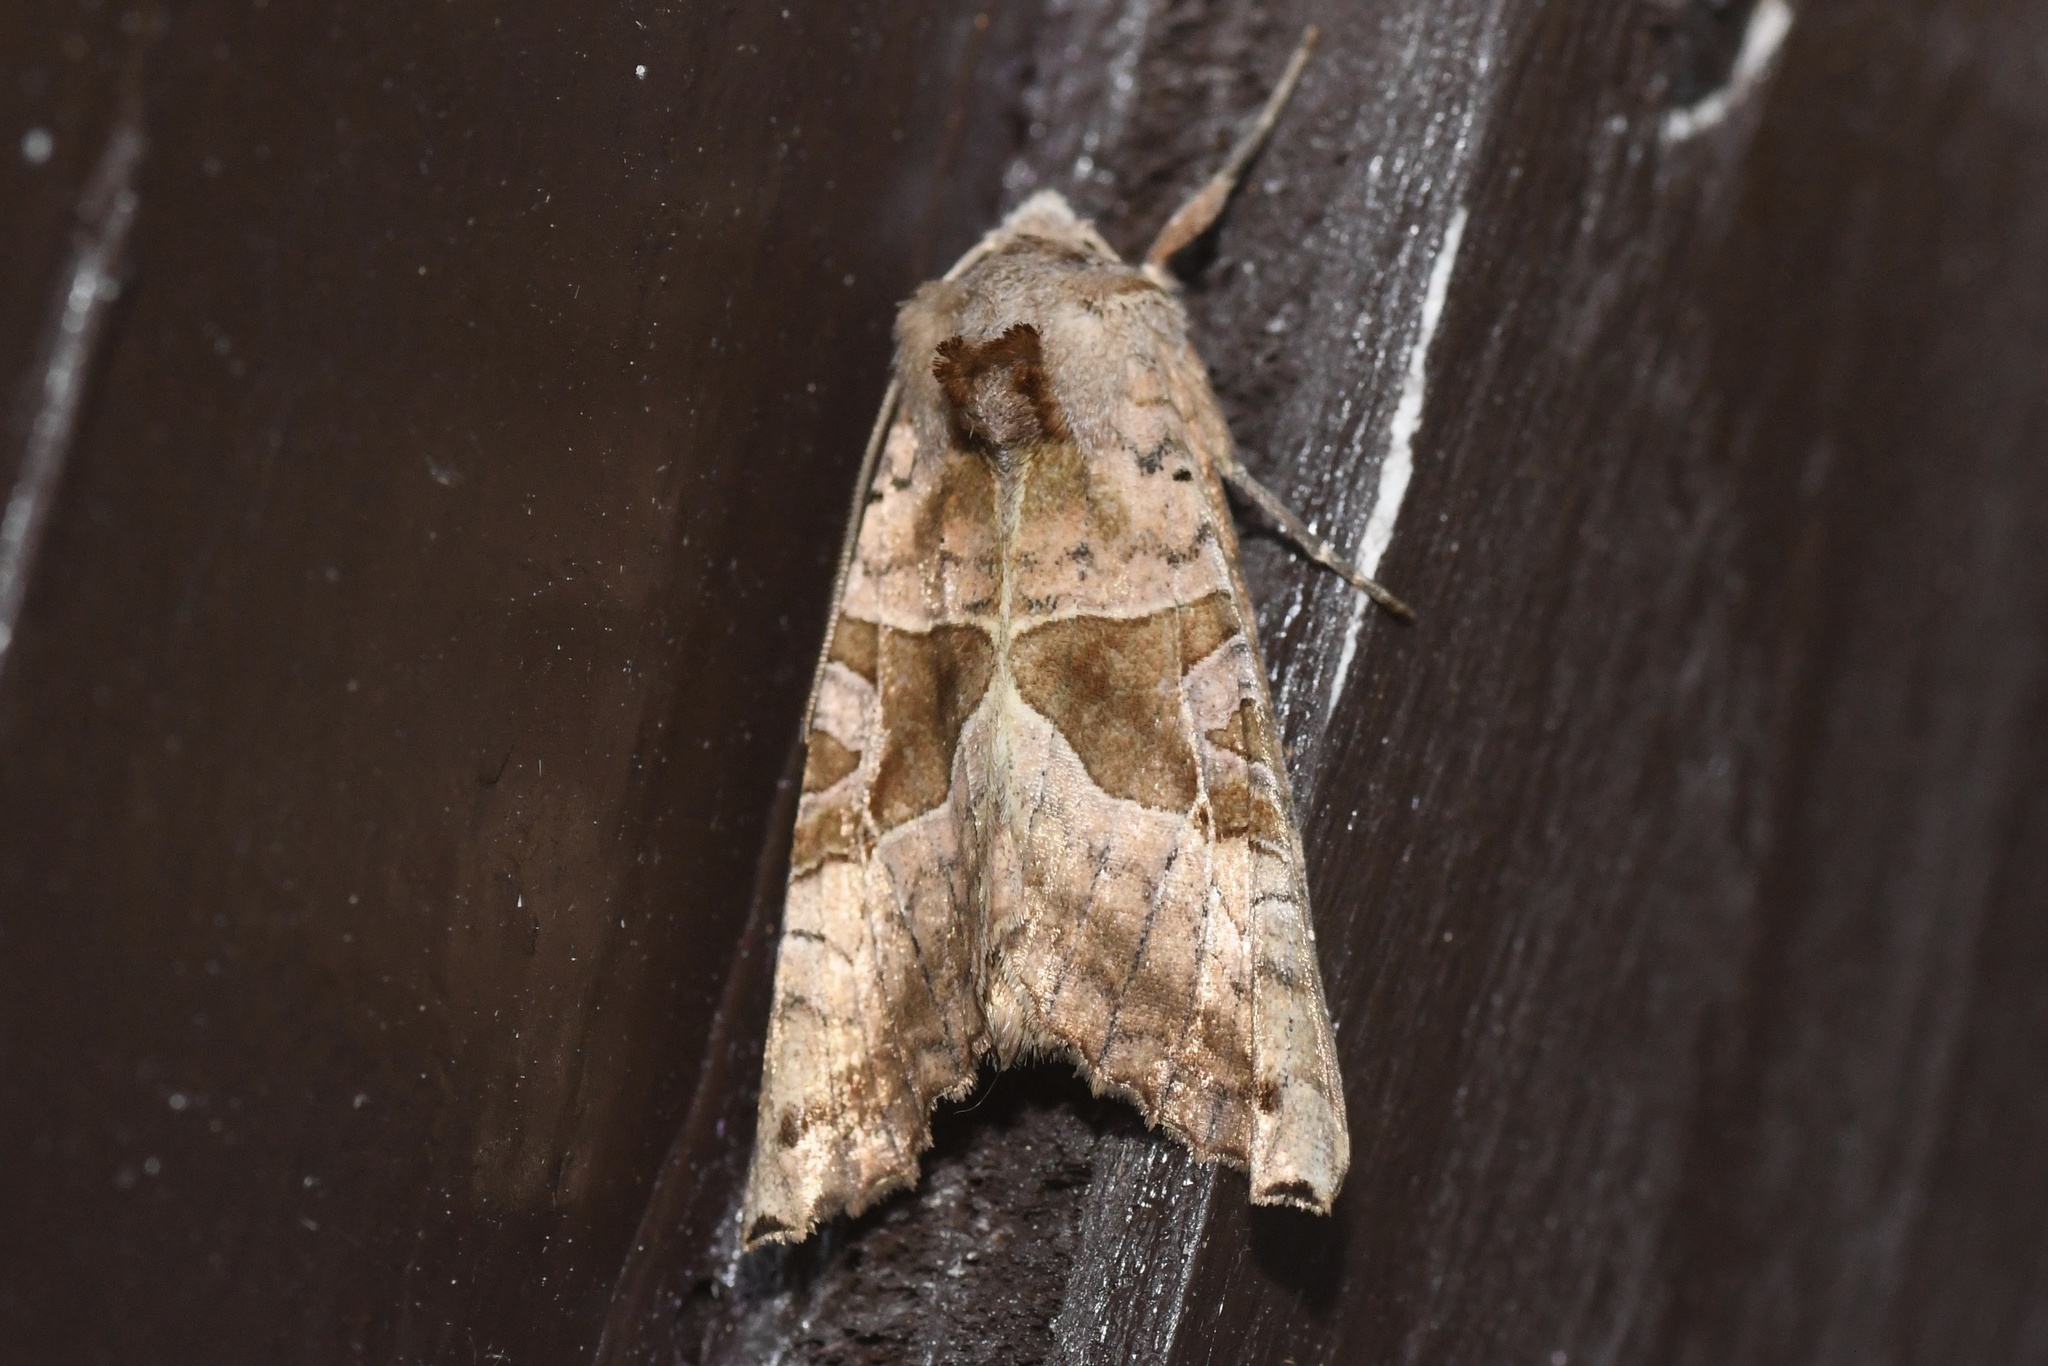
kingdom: Animalia
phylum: Arthropoda
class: Insecta
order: Lepidoptera
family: Noctuidae
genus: Phlogophora
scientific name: Phlogophora periculosa
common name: Brown angle shades
